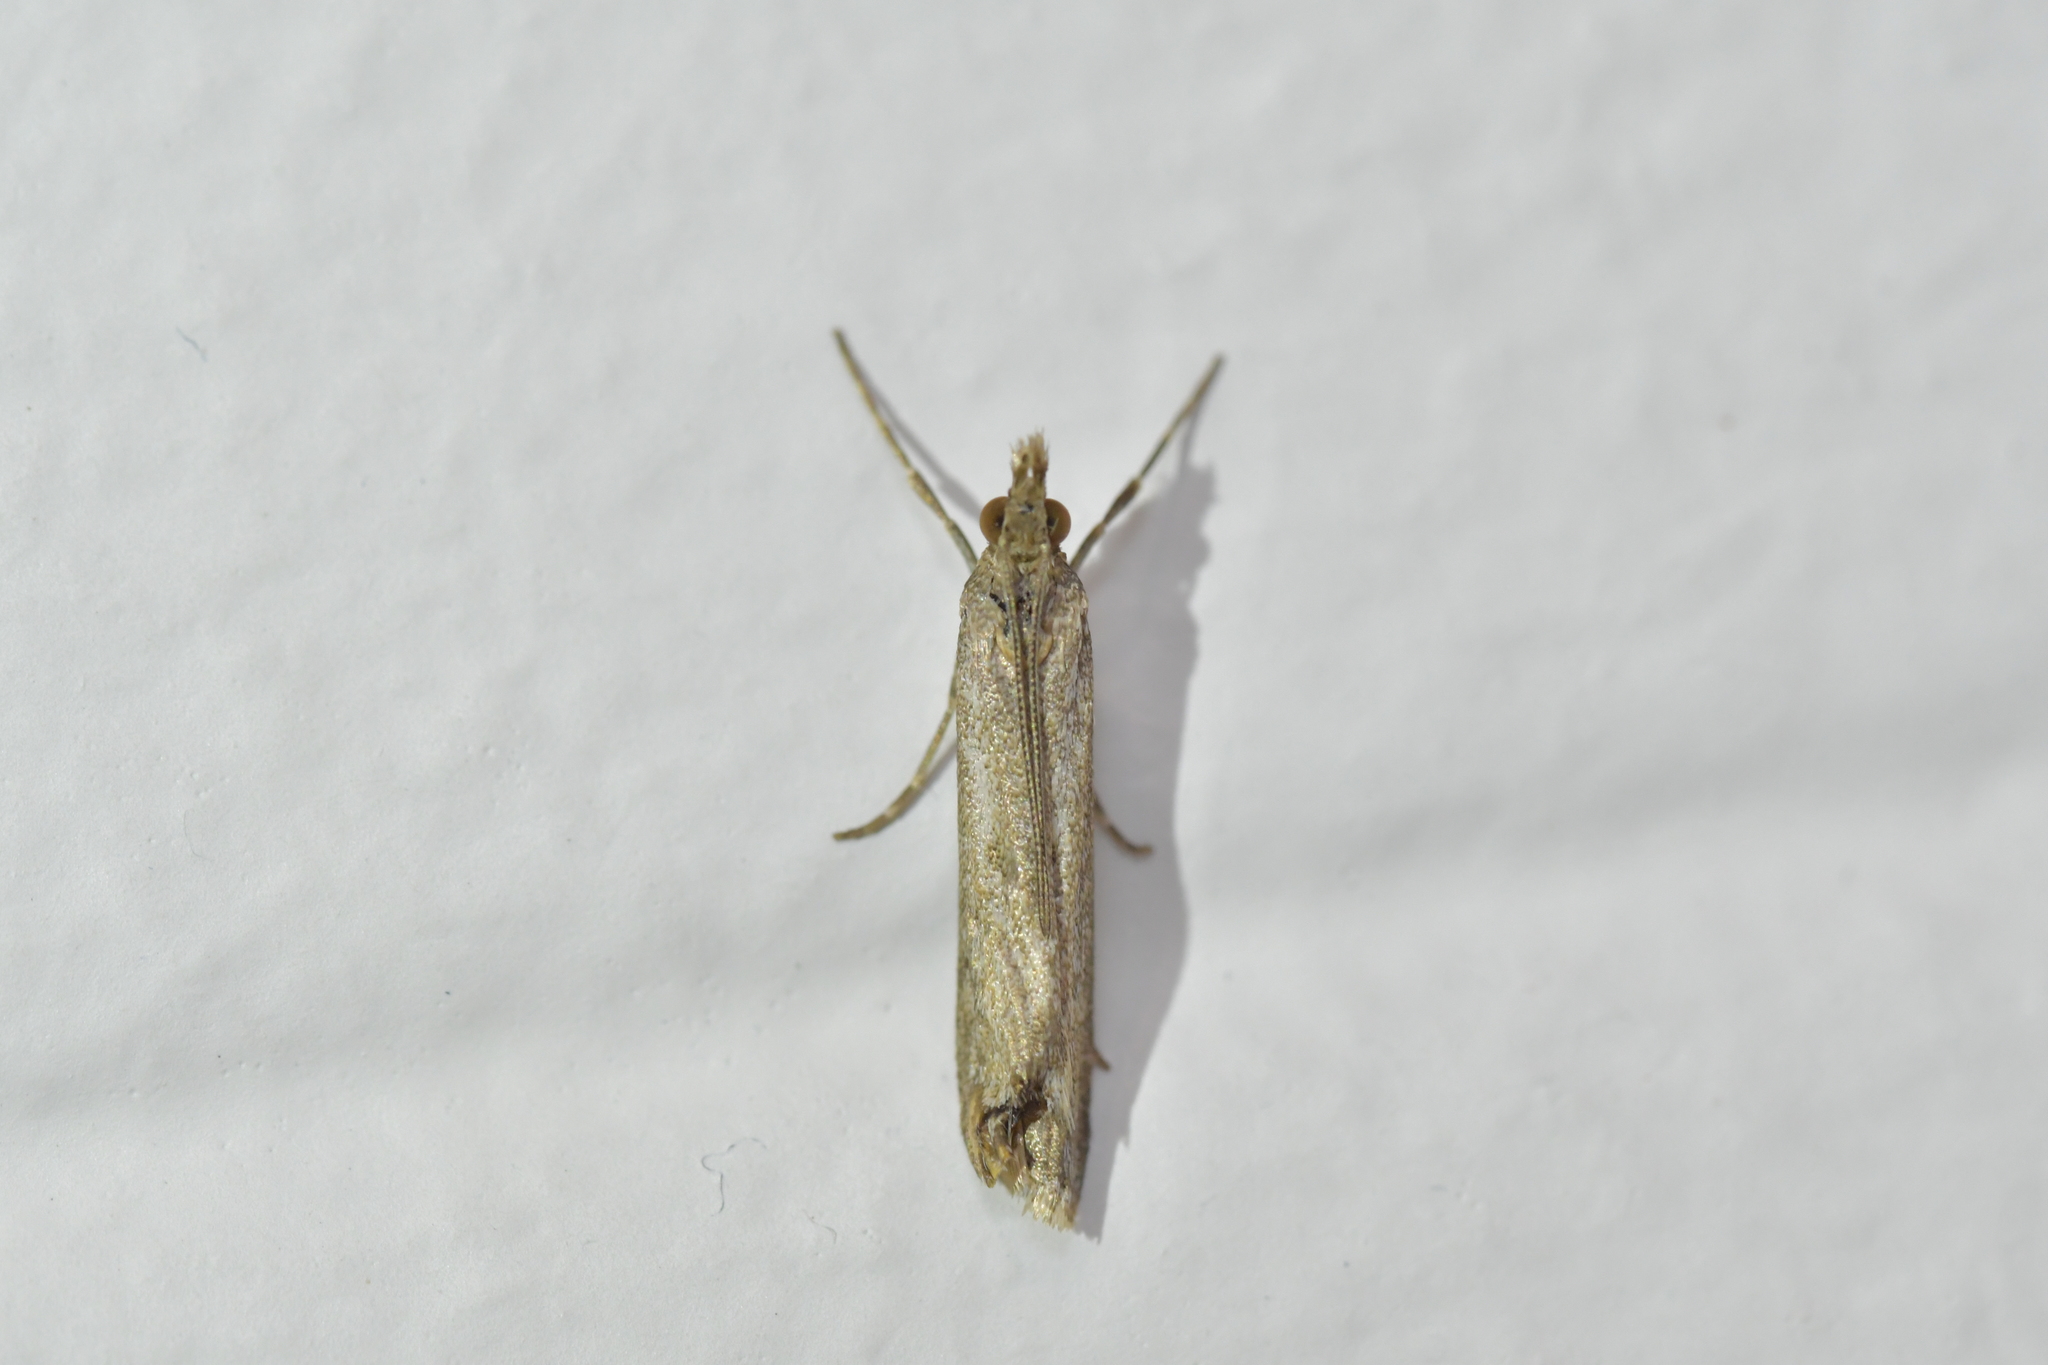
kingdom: Animalia
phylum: Arthropoda
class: Insecta
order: Lepidoptera
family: Crambidae
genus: Eudonia
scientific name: Eudonia leptalea
